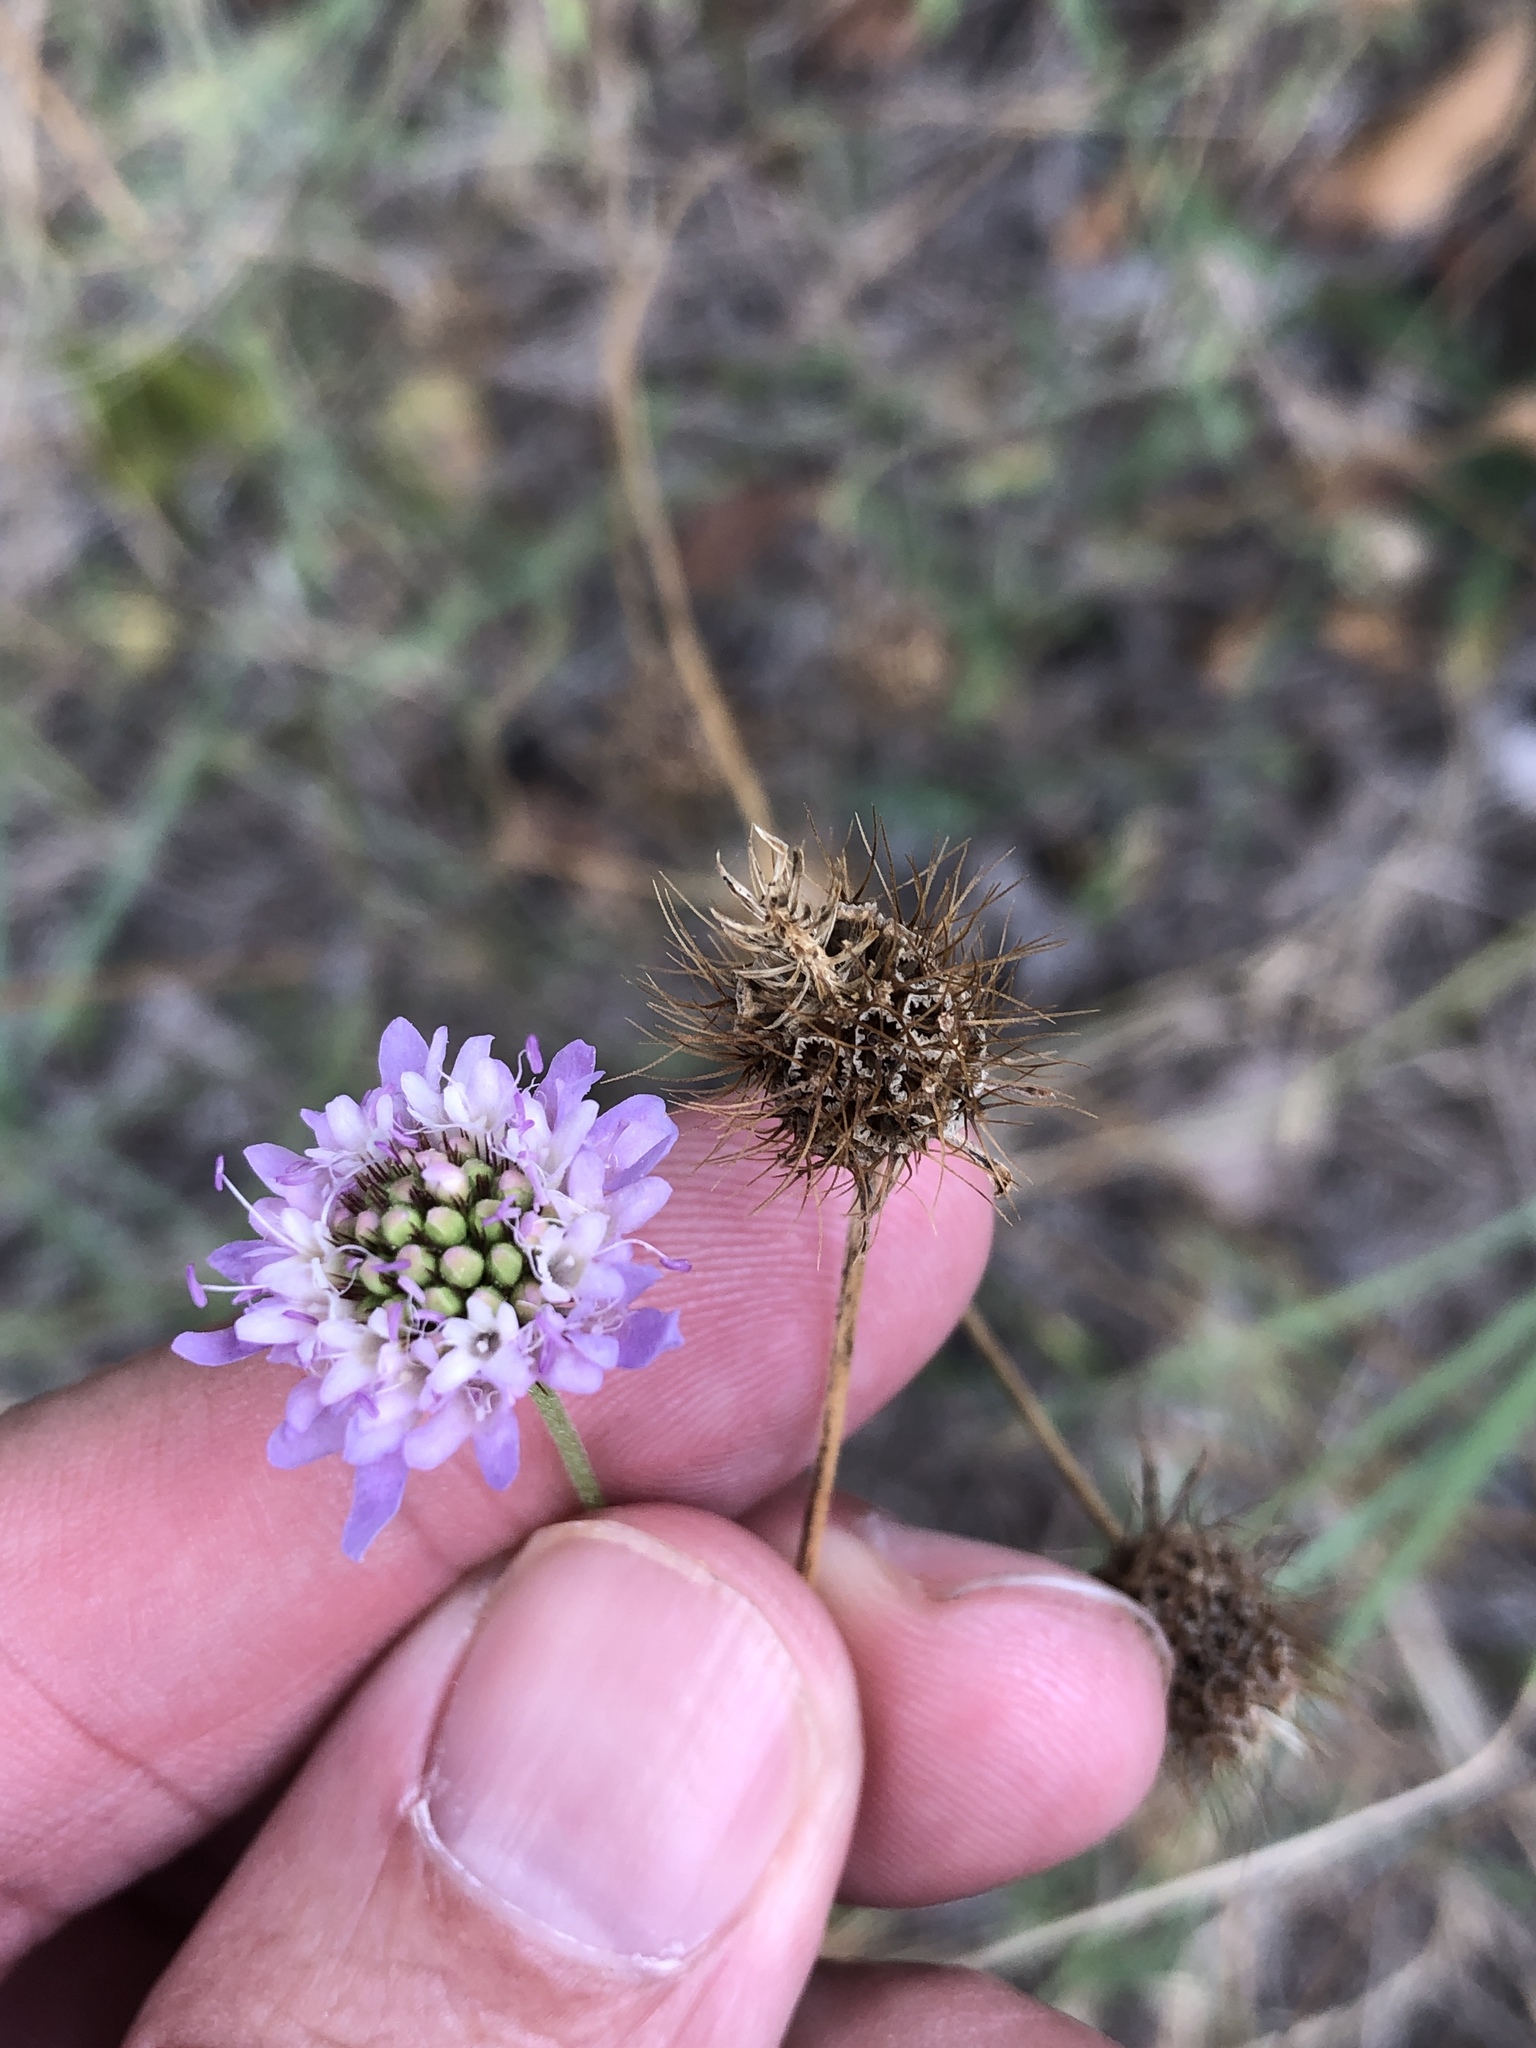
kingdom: Plantae
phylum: Tracheophyta
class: Magnoliopsida
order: Dipsacales
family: Caprifoliaceae
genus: Sixalix
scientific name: Sixalix atropurpurea
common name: Sweet scabious
